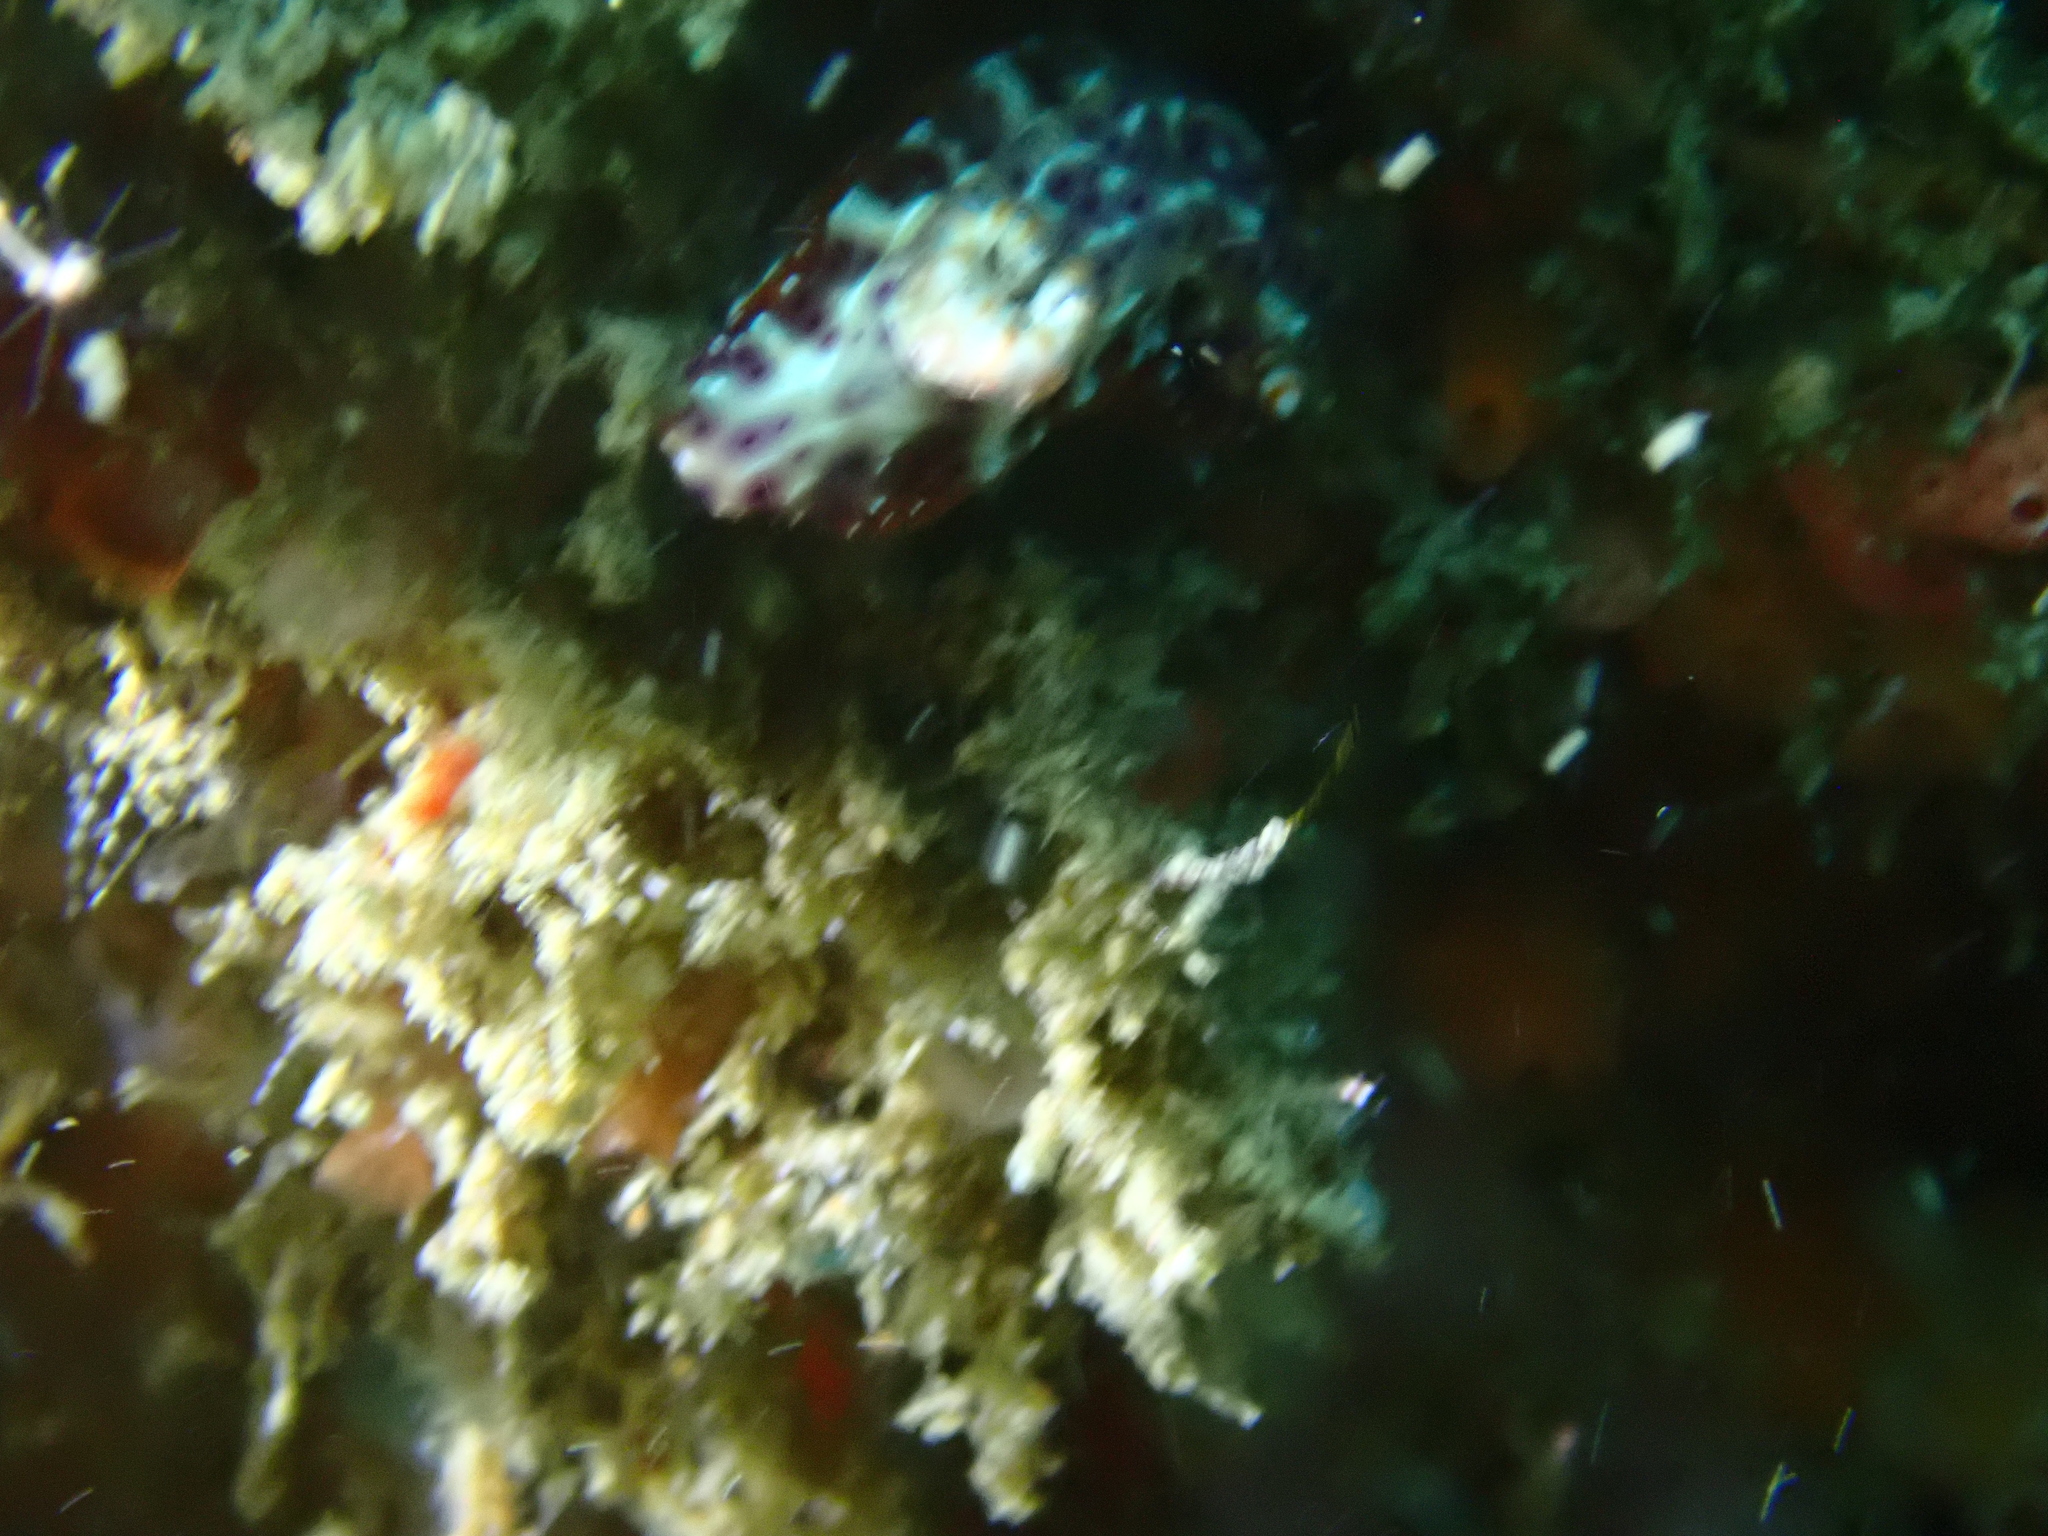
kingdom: Animalia
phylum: Mollusca
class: Gastropoda
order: Nudibranchia
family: Chromodorididae
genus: Hypselodoris
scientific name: Hypselodoris decorata
